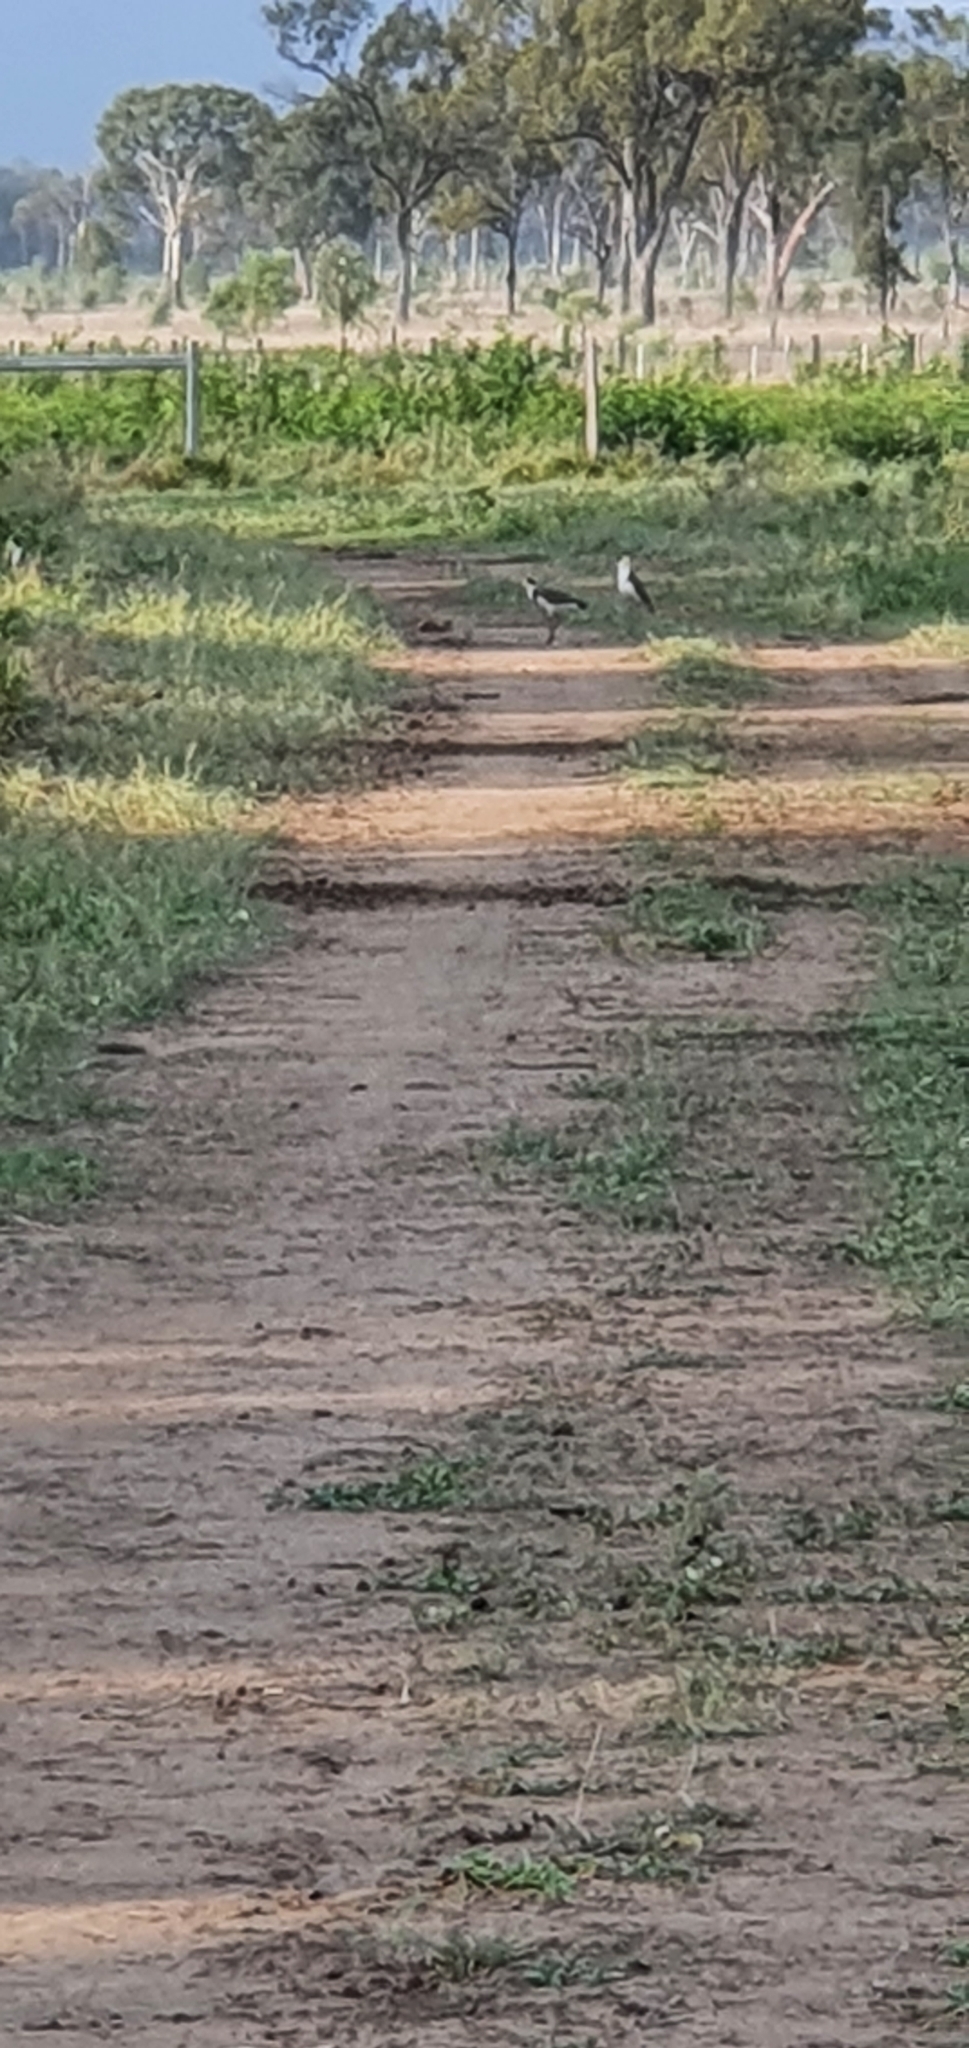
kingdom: Animalia
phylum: Chordata
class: Aves
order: Charadriiformes
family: Charadriidae
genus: Vanellus
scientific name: Vanellus miles
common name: Masked lapwing
